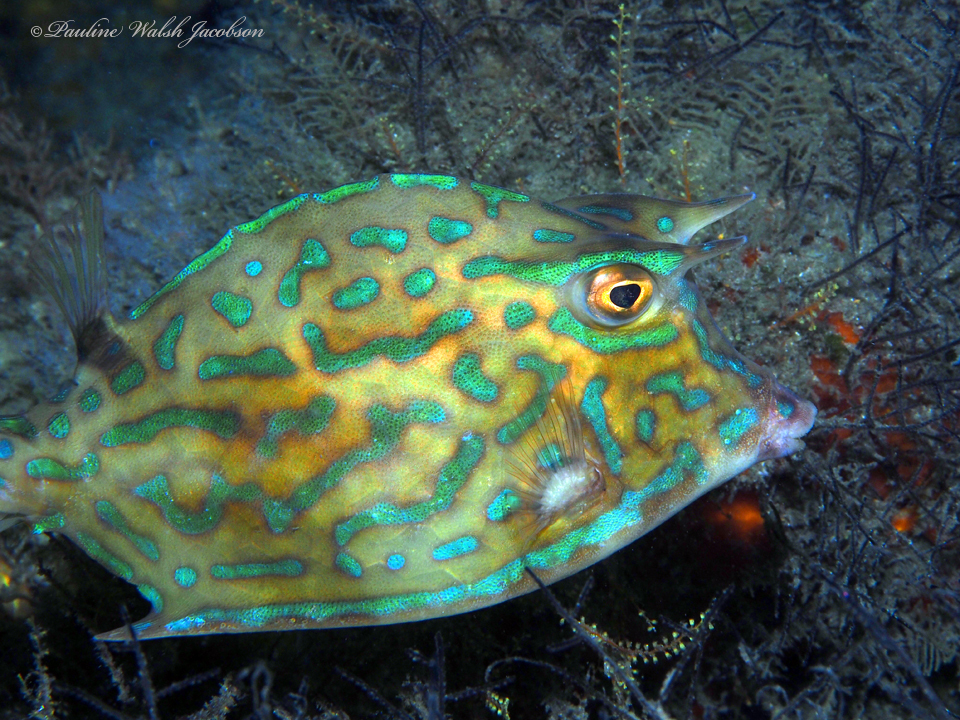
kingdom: Animalia
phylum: Chordata
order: Tetraodontiformes
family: Ostraciidae
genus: Acanthostracion
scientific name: Acanthostracion quadricornis
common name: Scrawled cowfish
